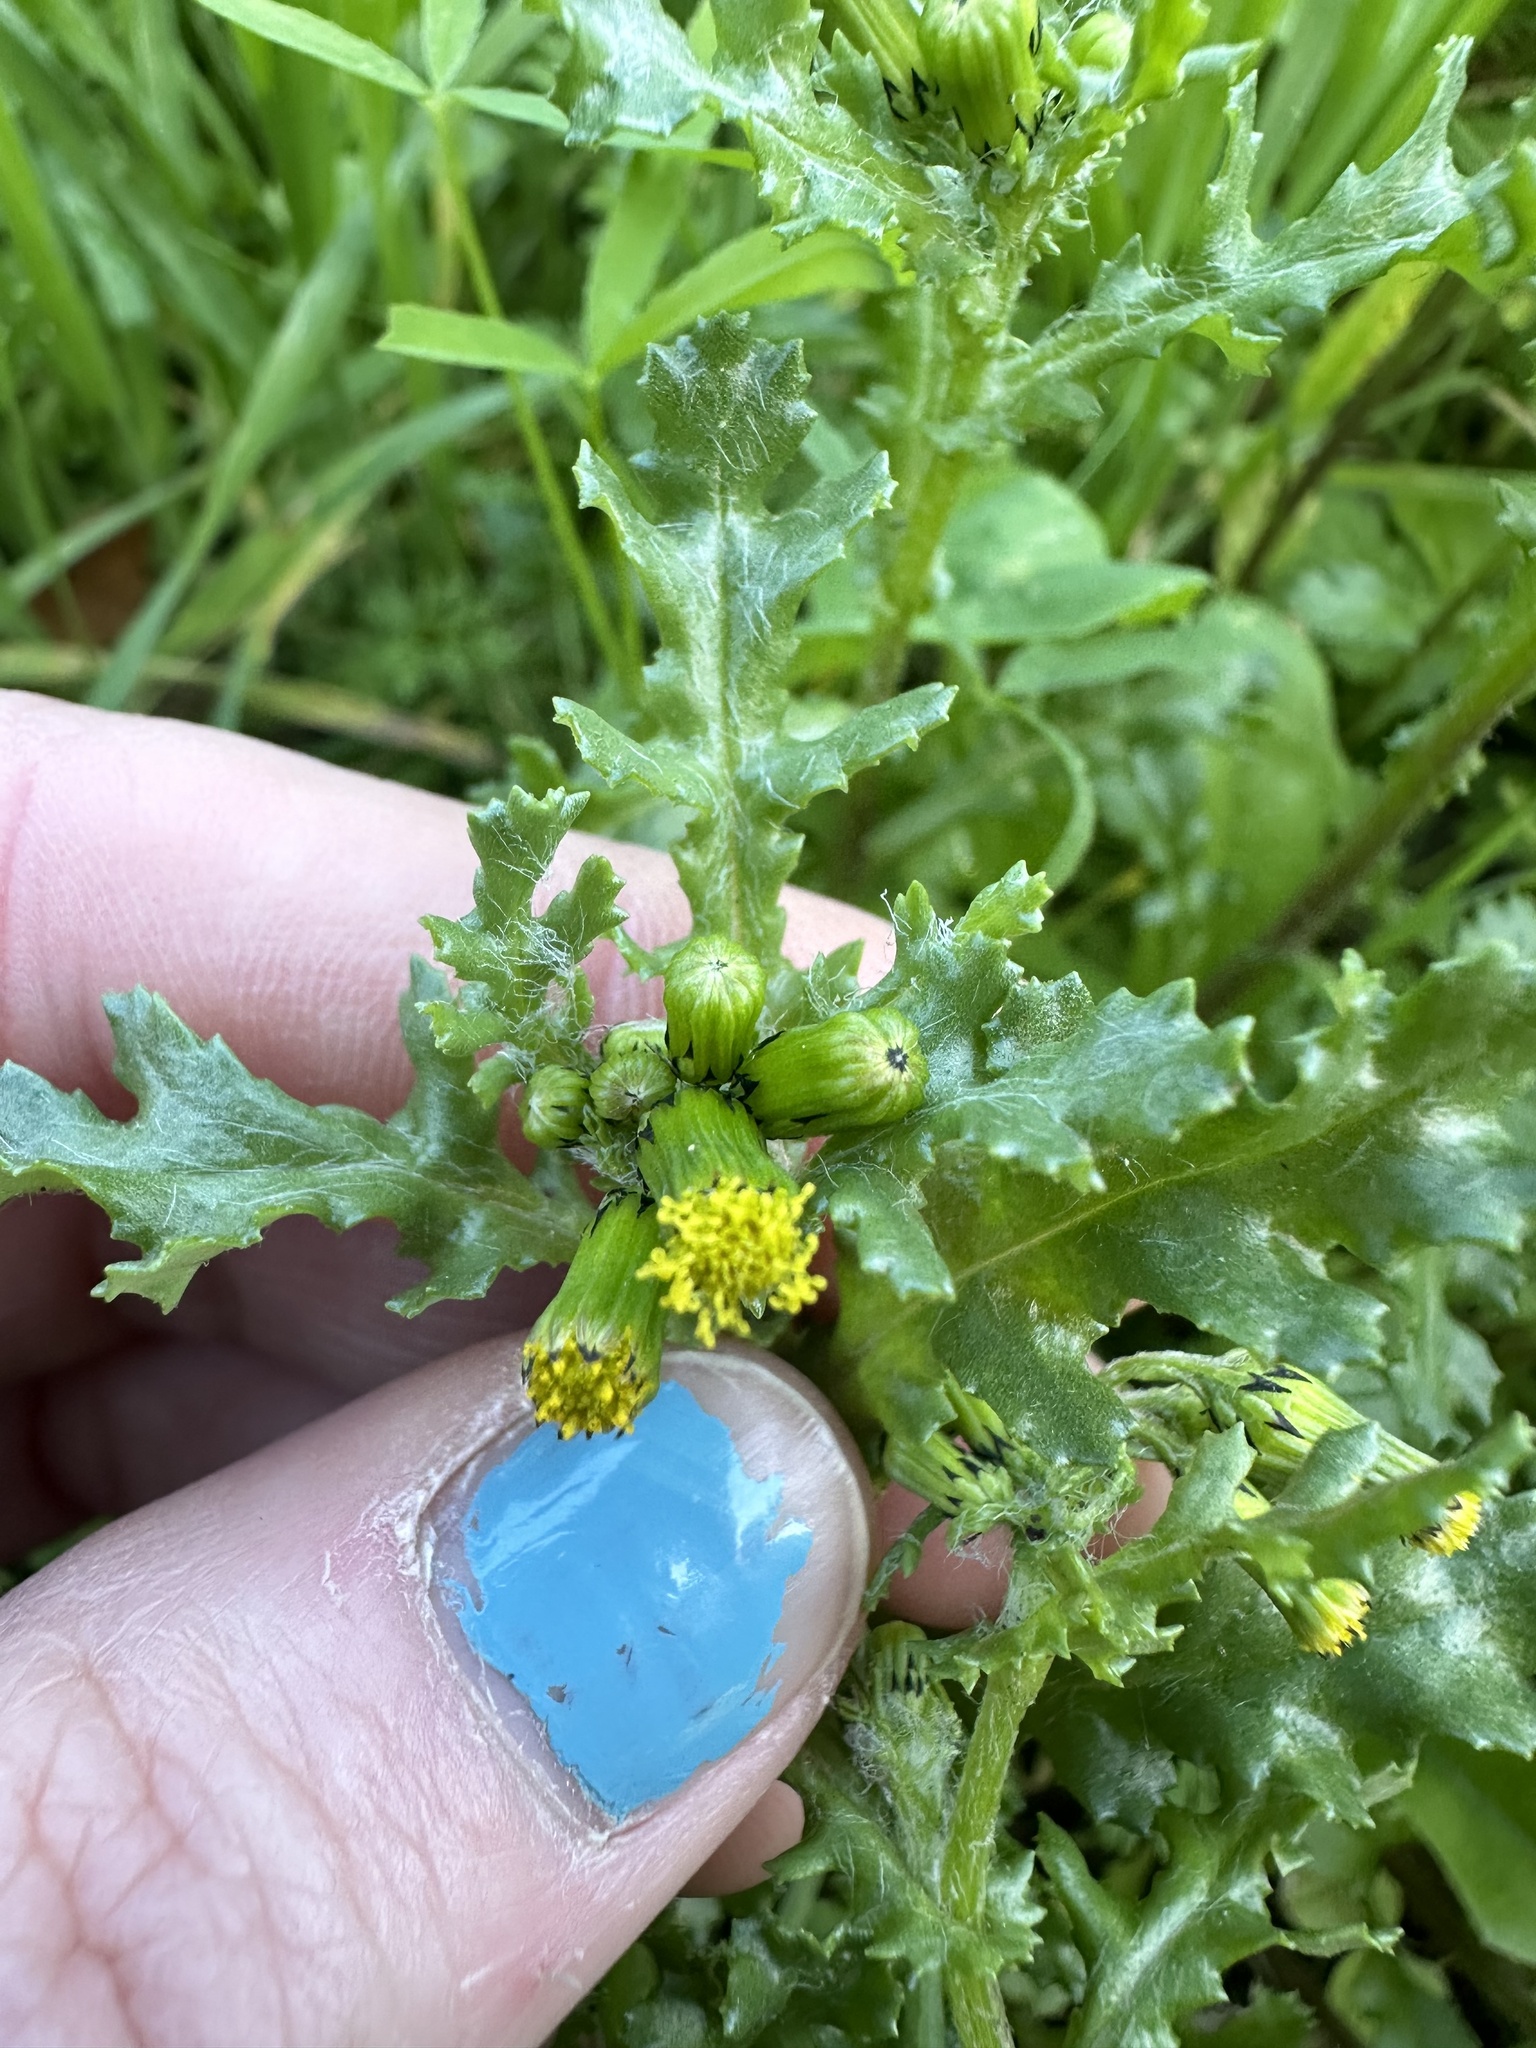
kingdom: Plantae
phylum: Tracheophyta
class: Magnoliopsida
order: Asterales
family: Asteraceae
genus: Senecio
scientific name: Senecio vulgaris
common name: Old-man-in-the-spring
